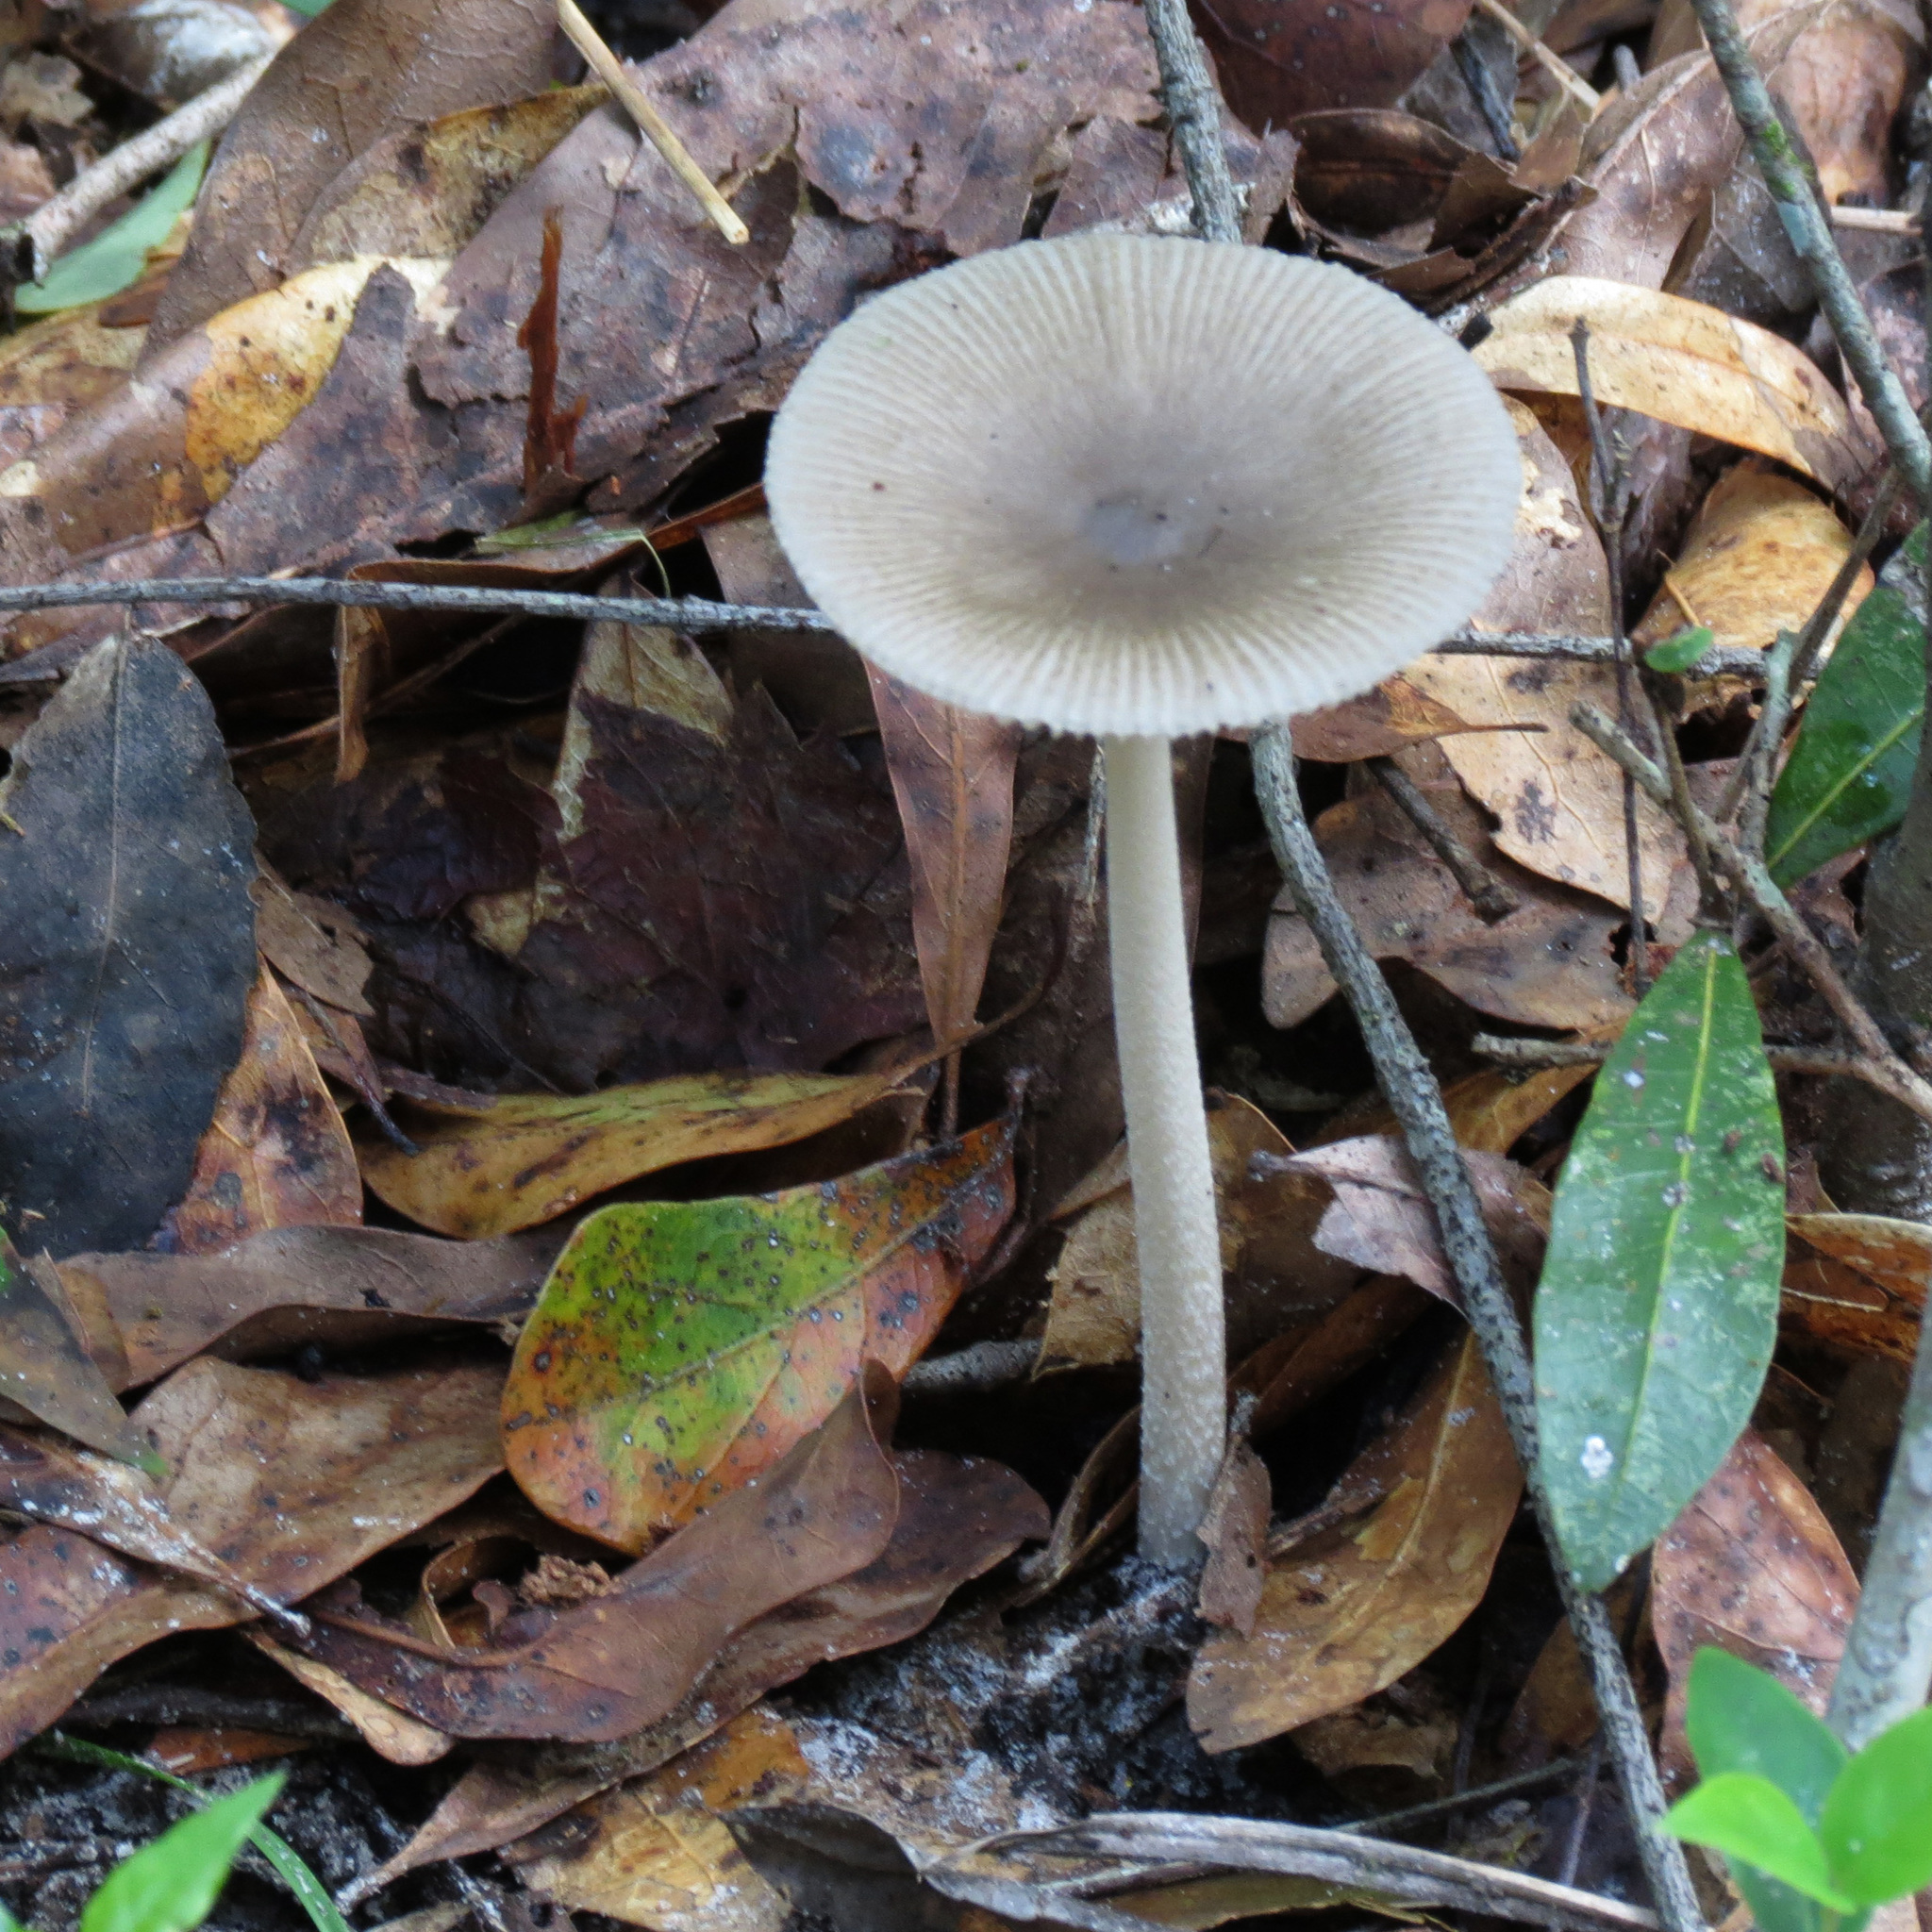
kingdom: Fungi
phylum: Basidiomycota
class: Agaricomycetes
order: Agaricales
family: Amanitaceae
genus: Amanita
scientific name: Amanita vaginata
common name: Grisette
